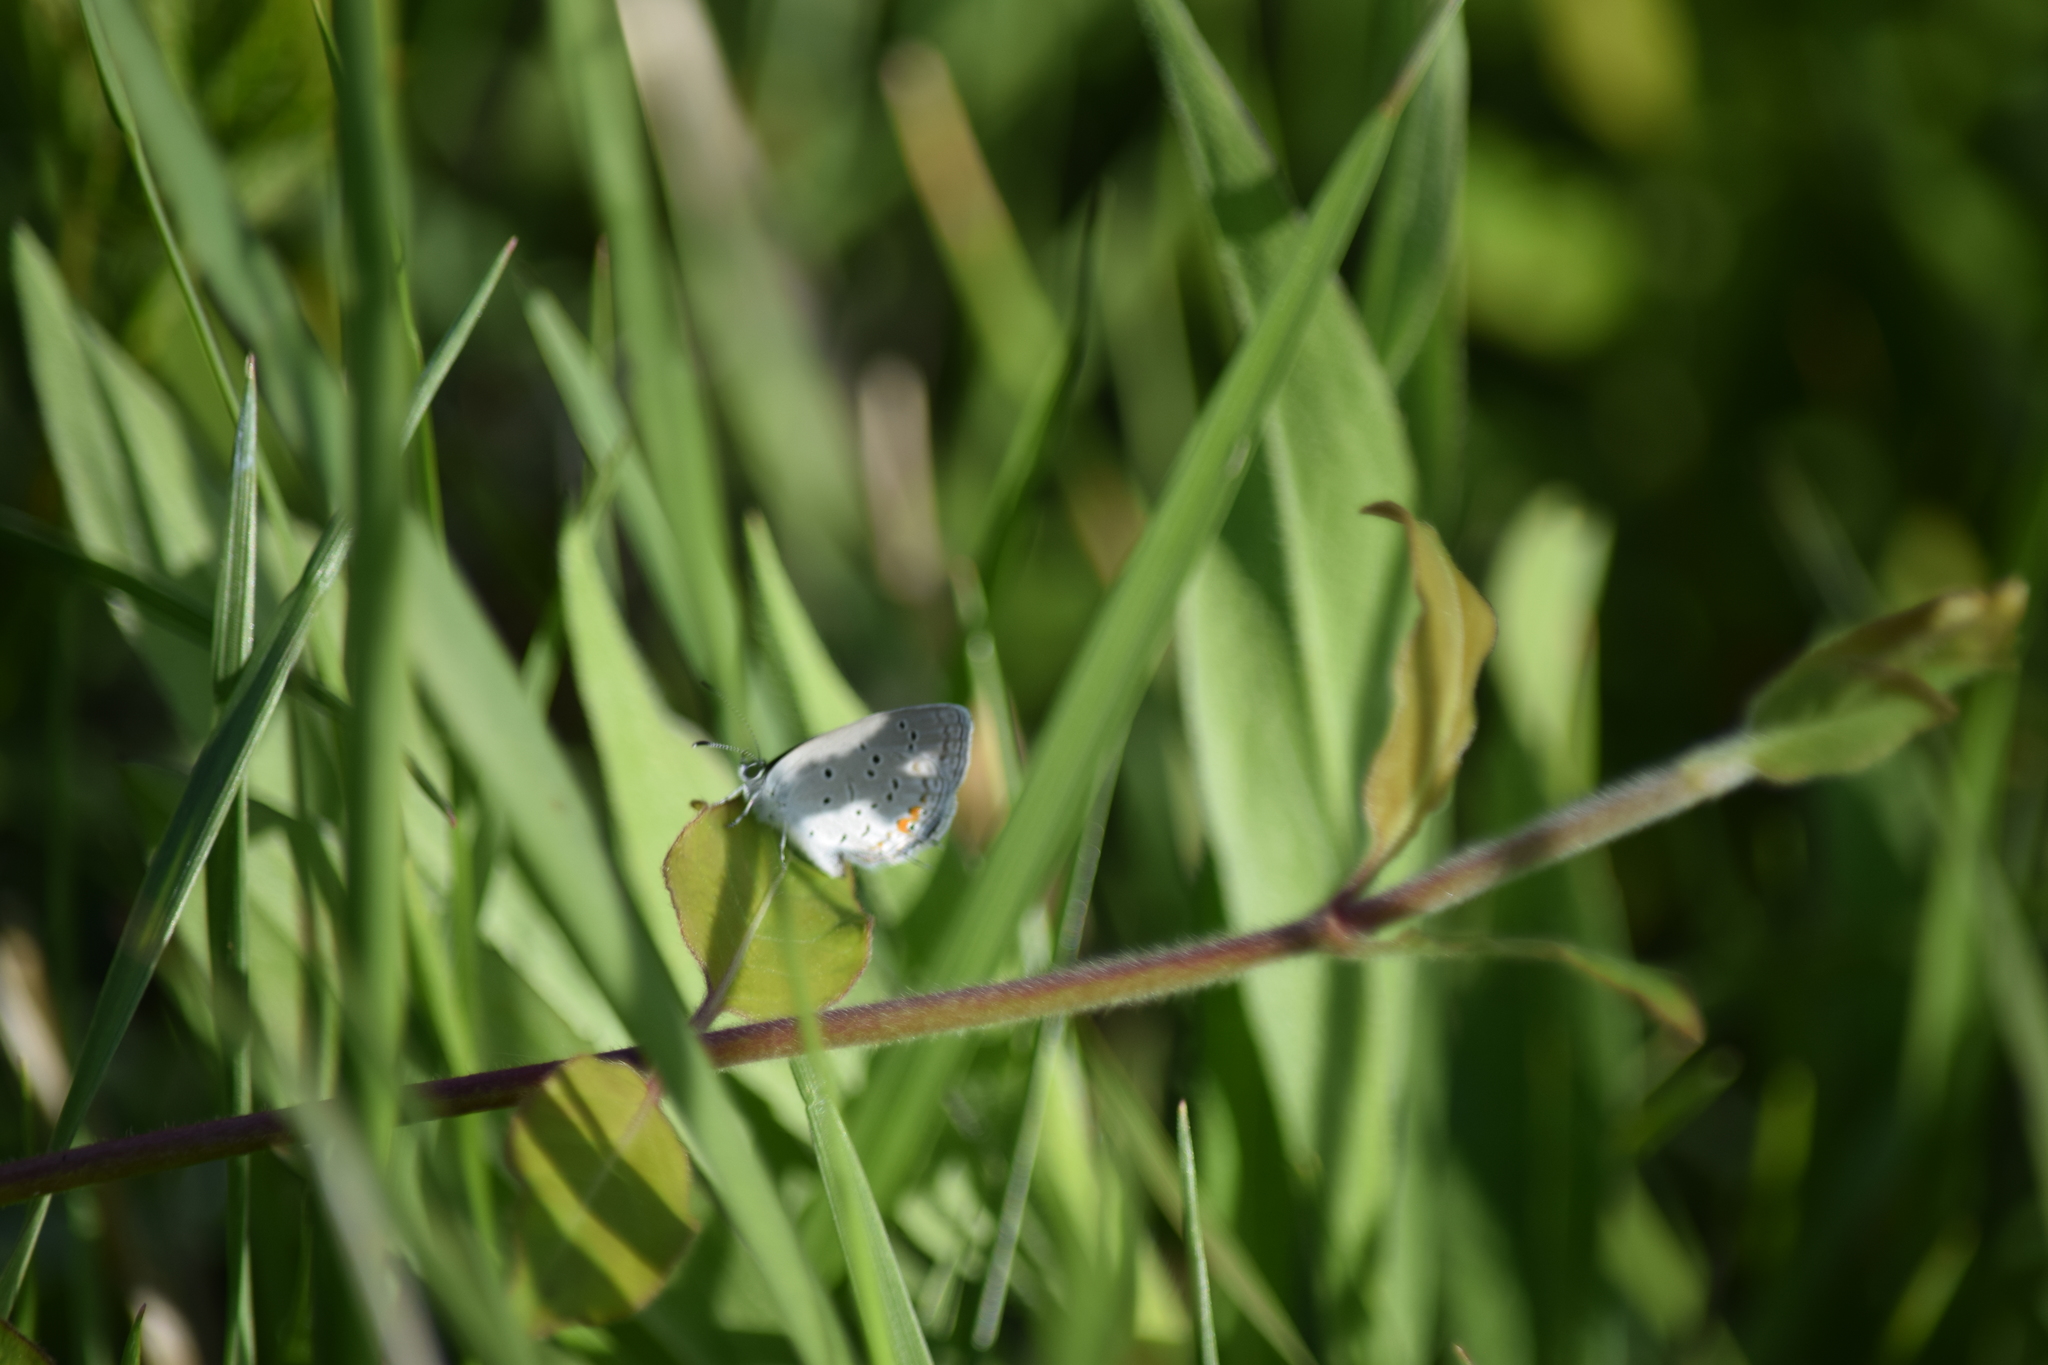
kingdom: Animalia
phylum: Arthropoda
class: Insecta
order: Lepidoptera
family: Lycaenidae
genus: Elkalyce
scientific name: Elkalyce comyntas
